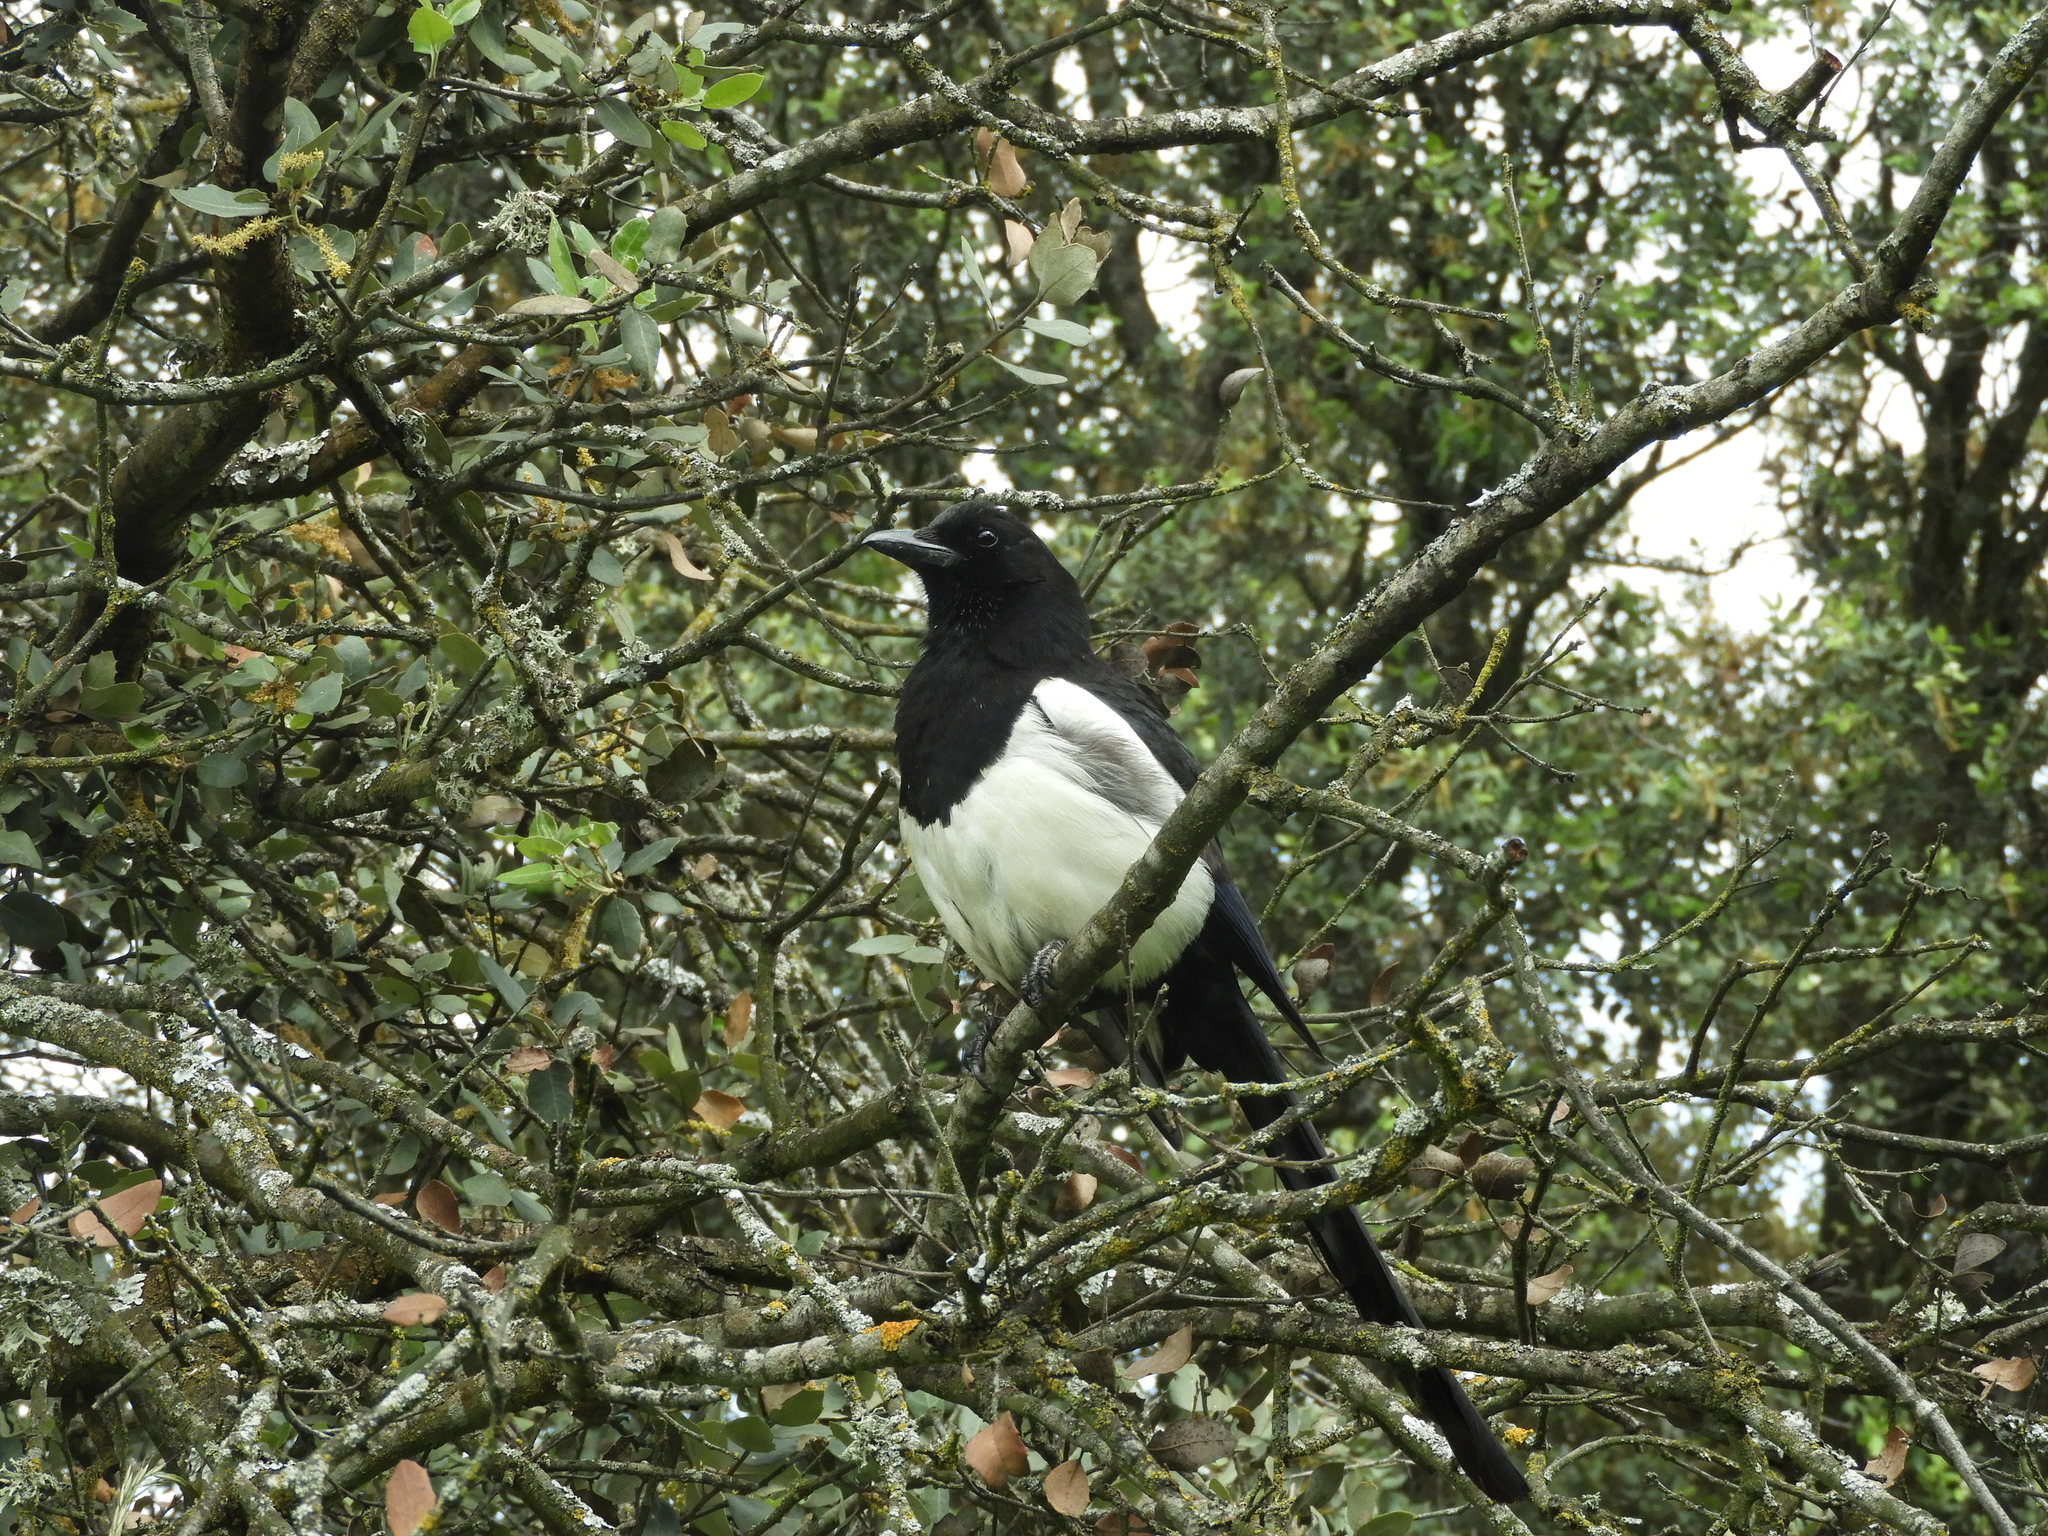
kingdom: Animalia
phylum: Chordata
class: Aves
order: Passeriformes
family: Corvidae
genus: Pica
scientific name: Pica pica
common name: Eurasian magpie
